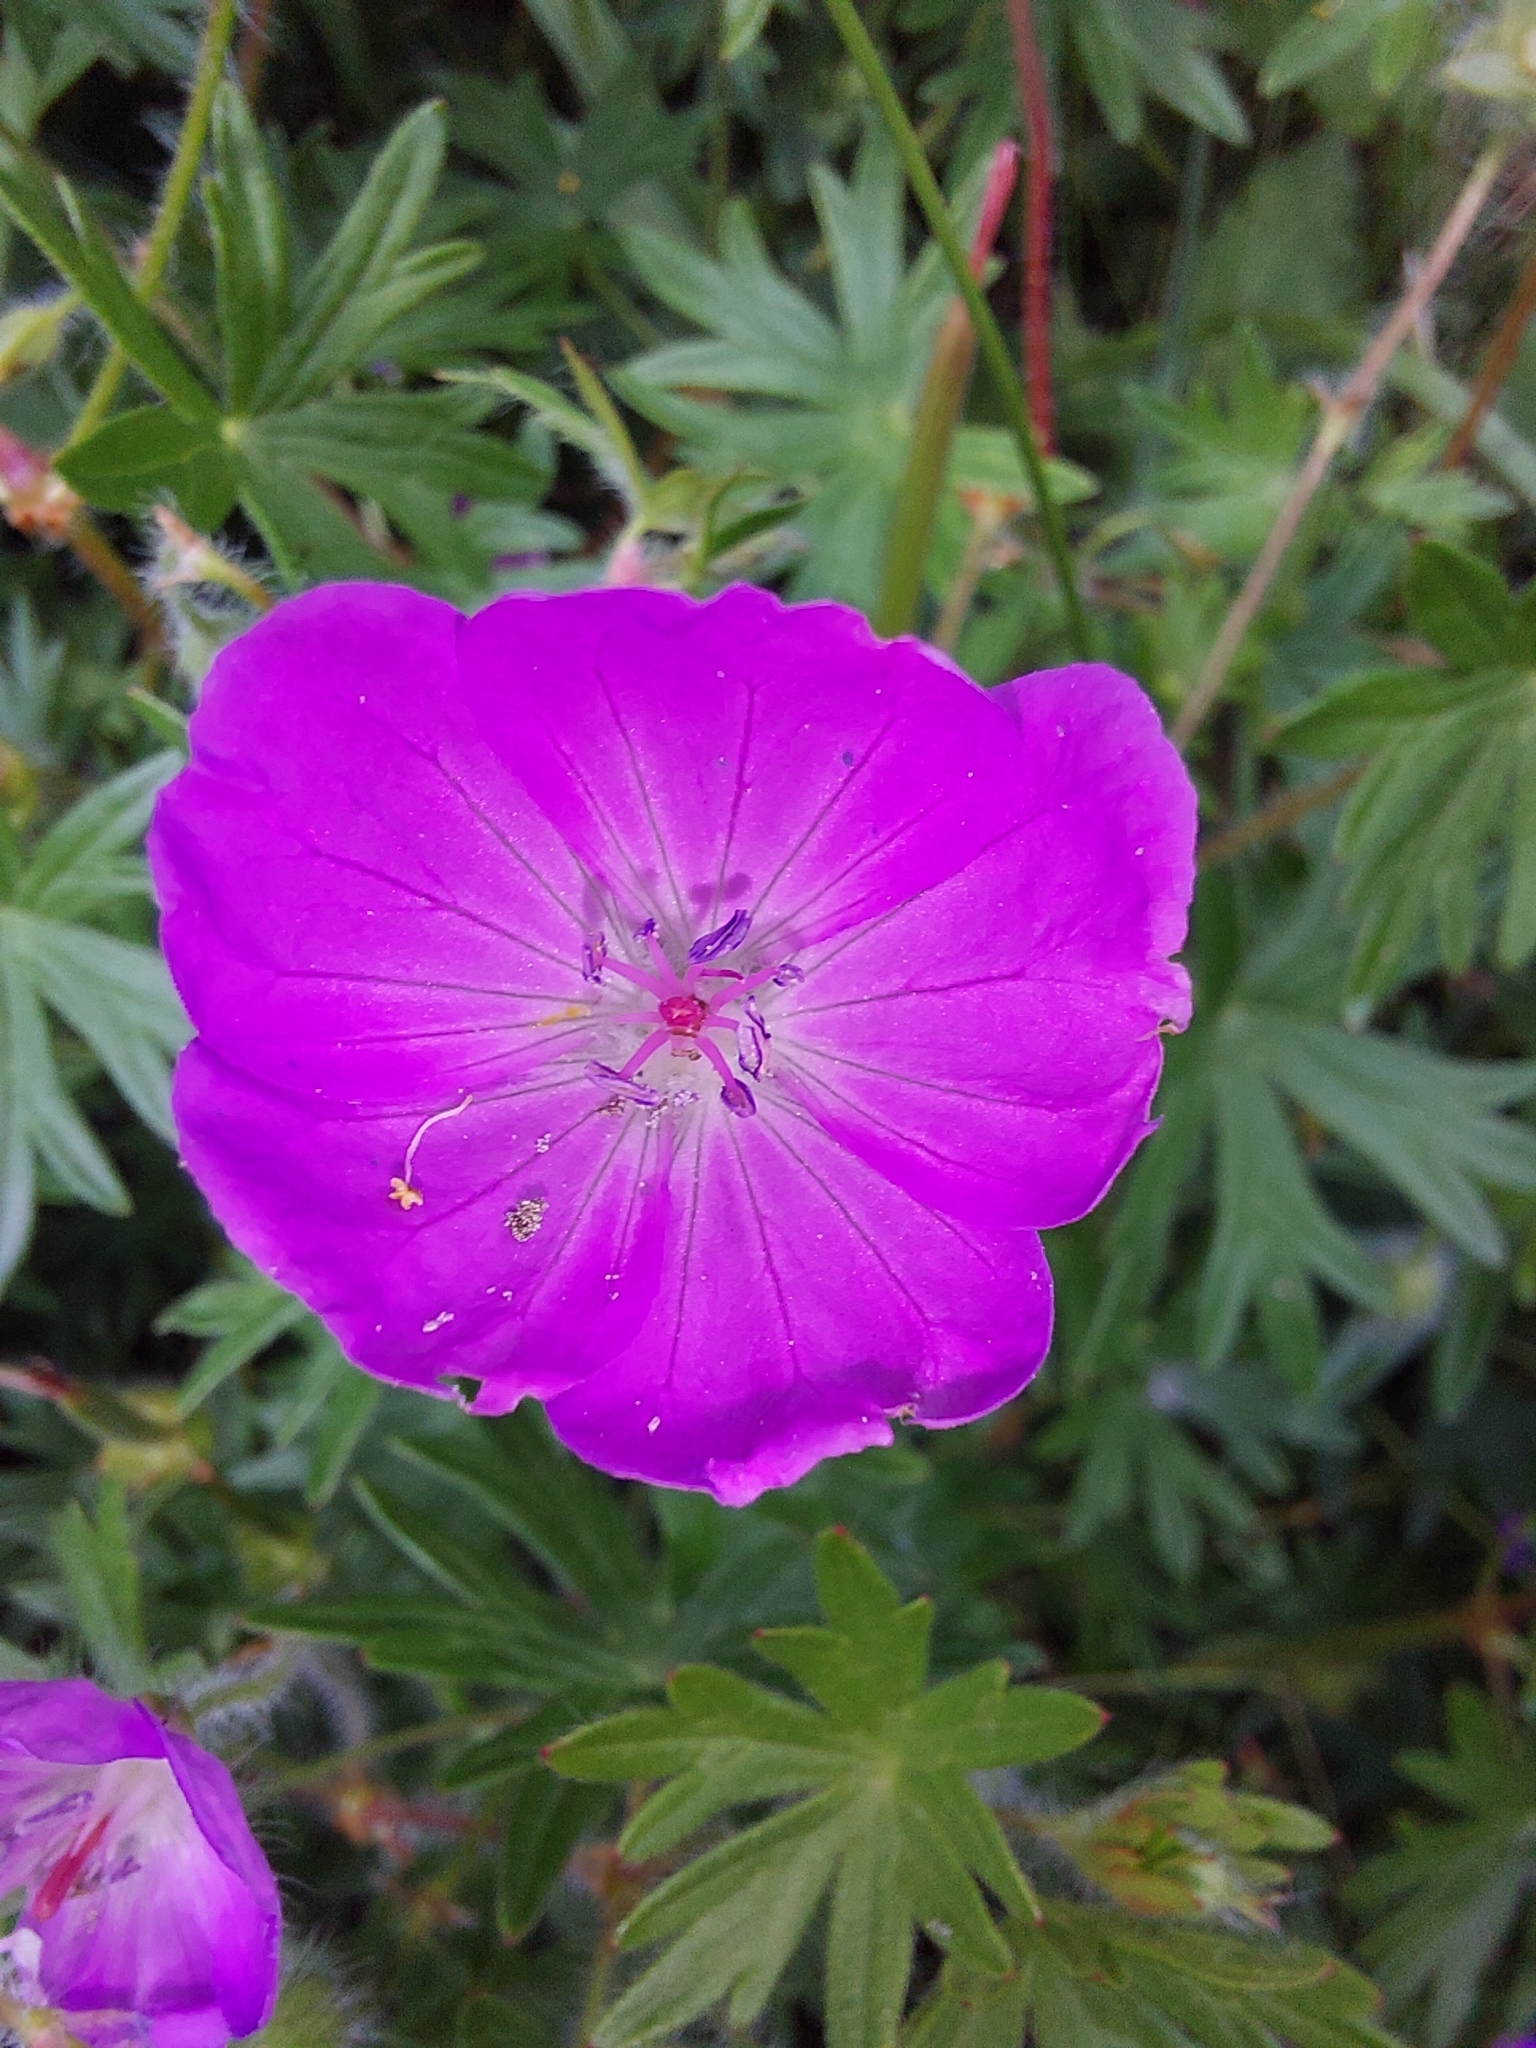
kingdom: Plantae
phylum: Tracheophyta
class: Magnoliopsida
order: Geraniales
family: Geraniaceae
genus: Geranium
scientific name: Geranium sanguineum
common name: Bloody crane's-bill
